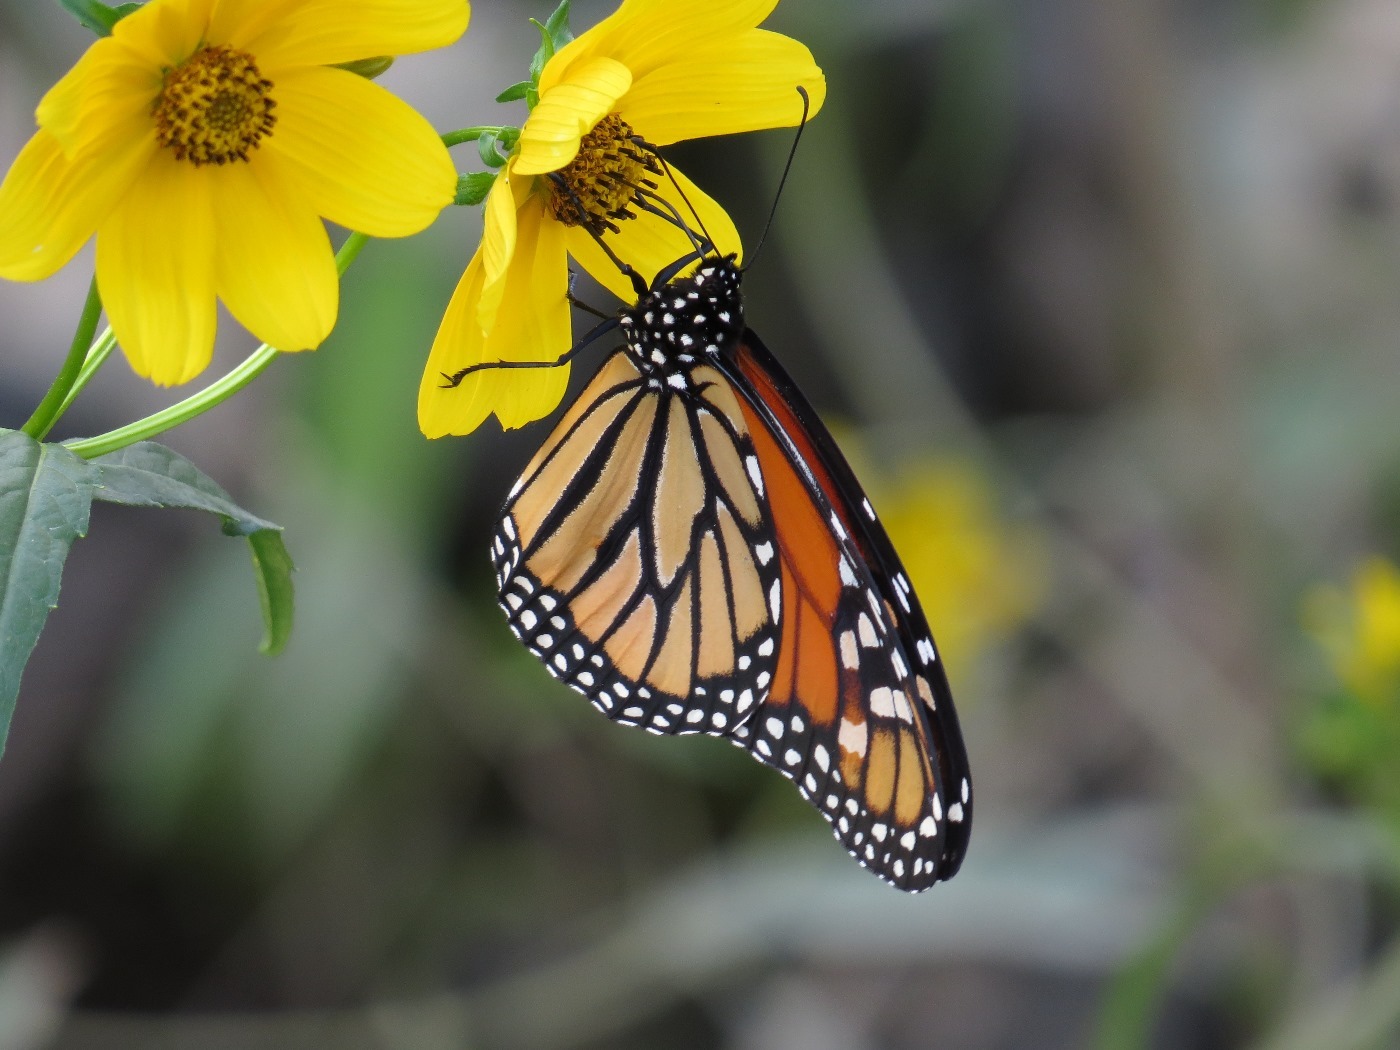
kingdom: Animalia
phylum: Arthropoda
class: Insecta
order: Lepidoptera
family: Nymphalidae
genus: Danaus
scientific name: Danaus plexippus
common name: Monarch
